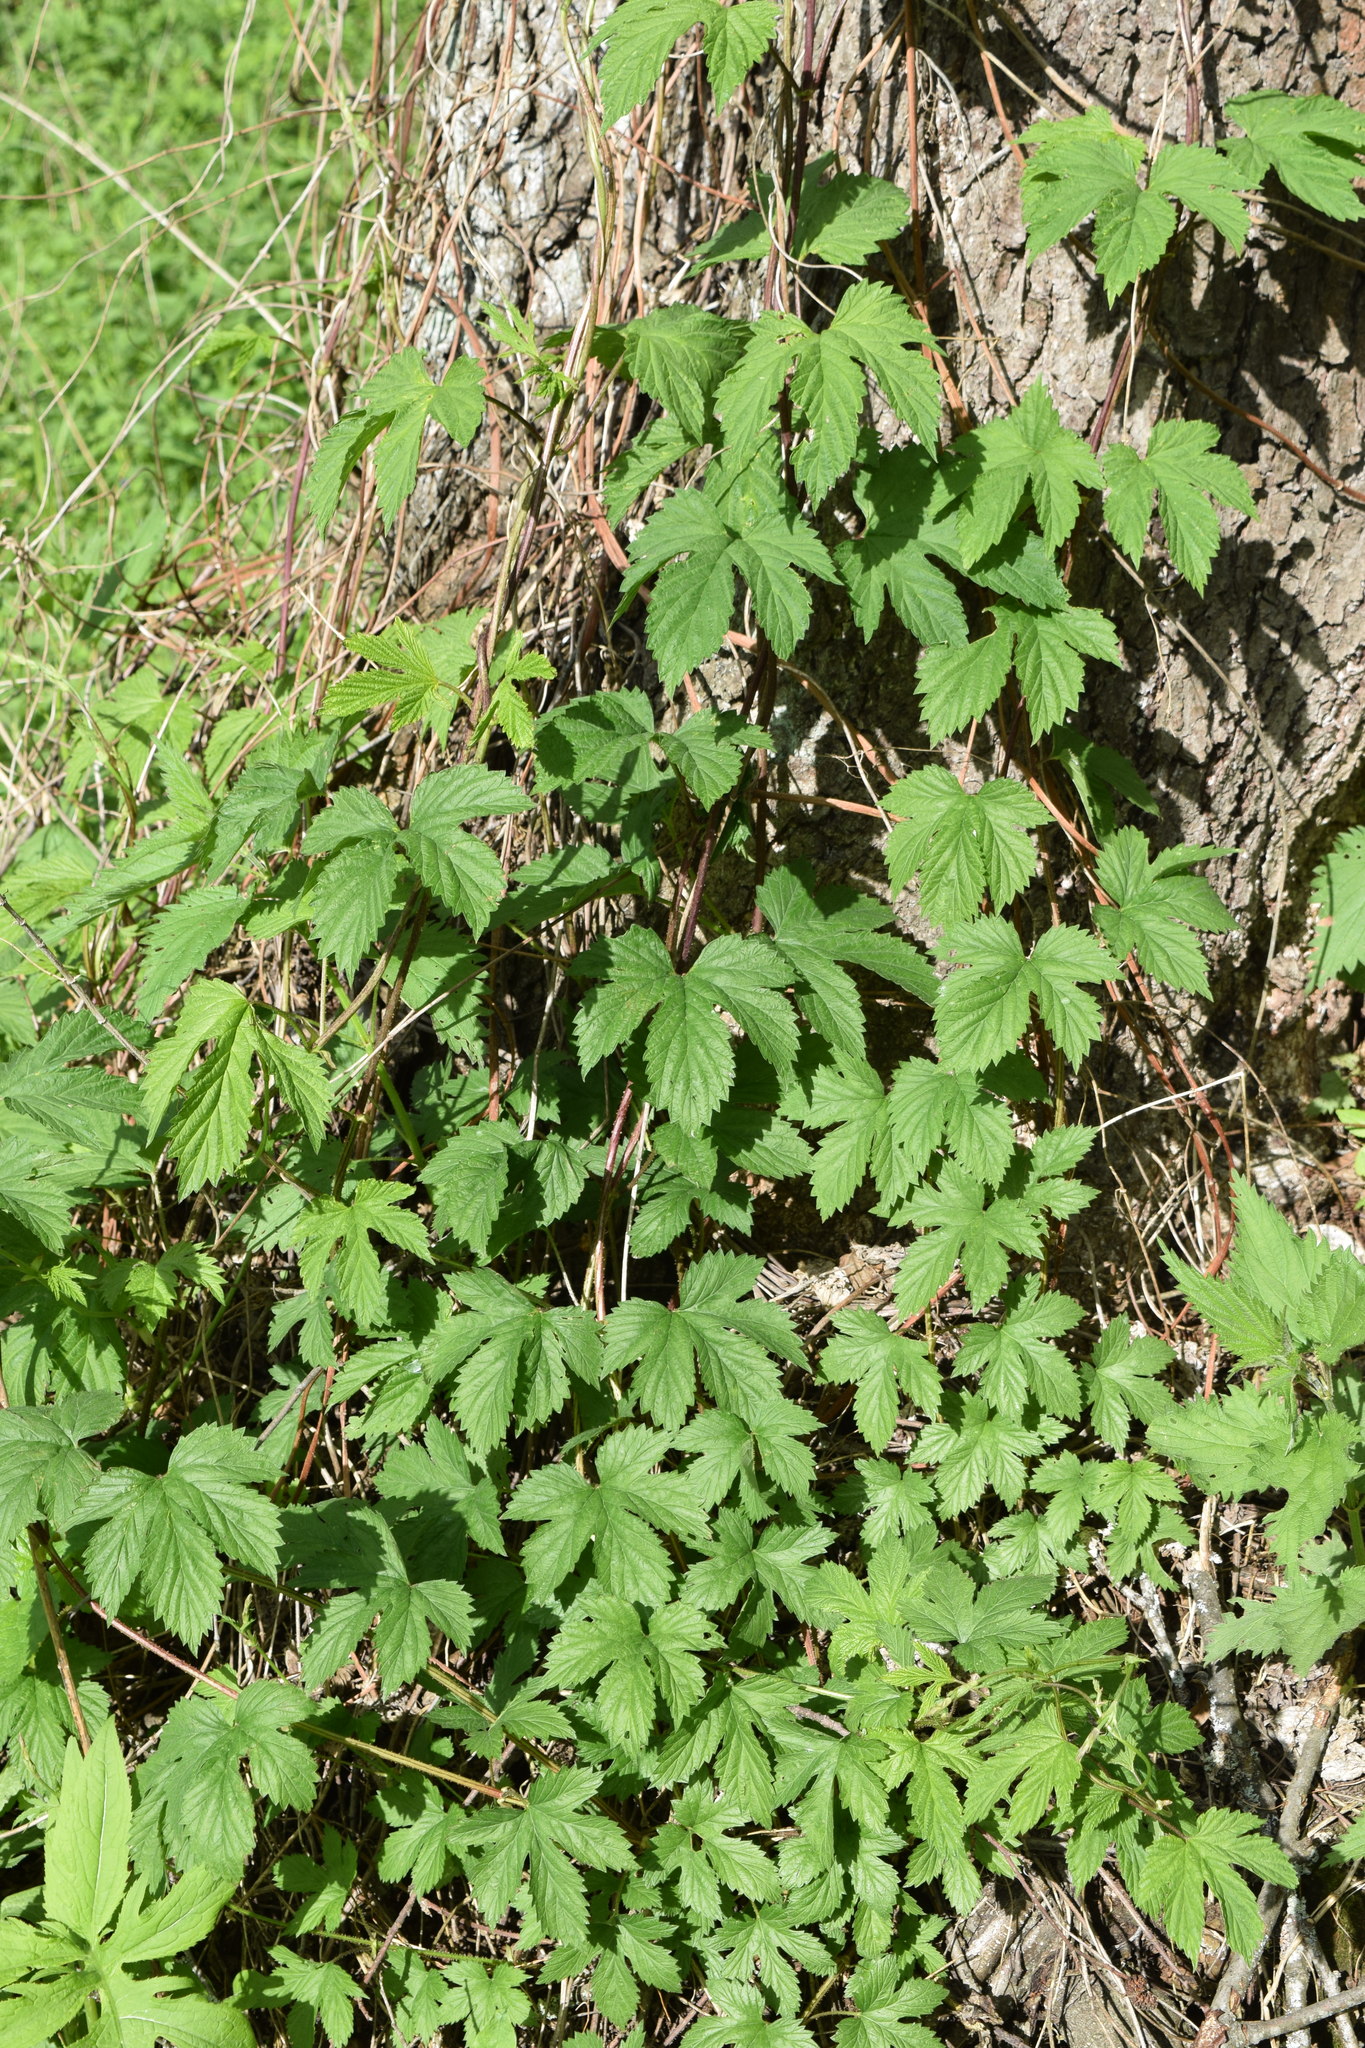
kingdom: Plantae
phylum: Tracheophyta
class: Magnoliopsida
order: Rosales
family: Cannabaceae
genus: Humulus
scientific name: Humulus lupulus
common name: Hop
